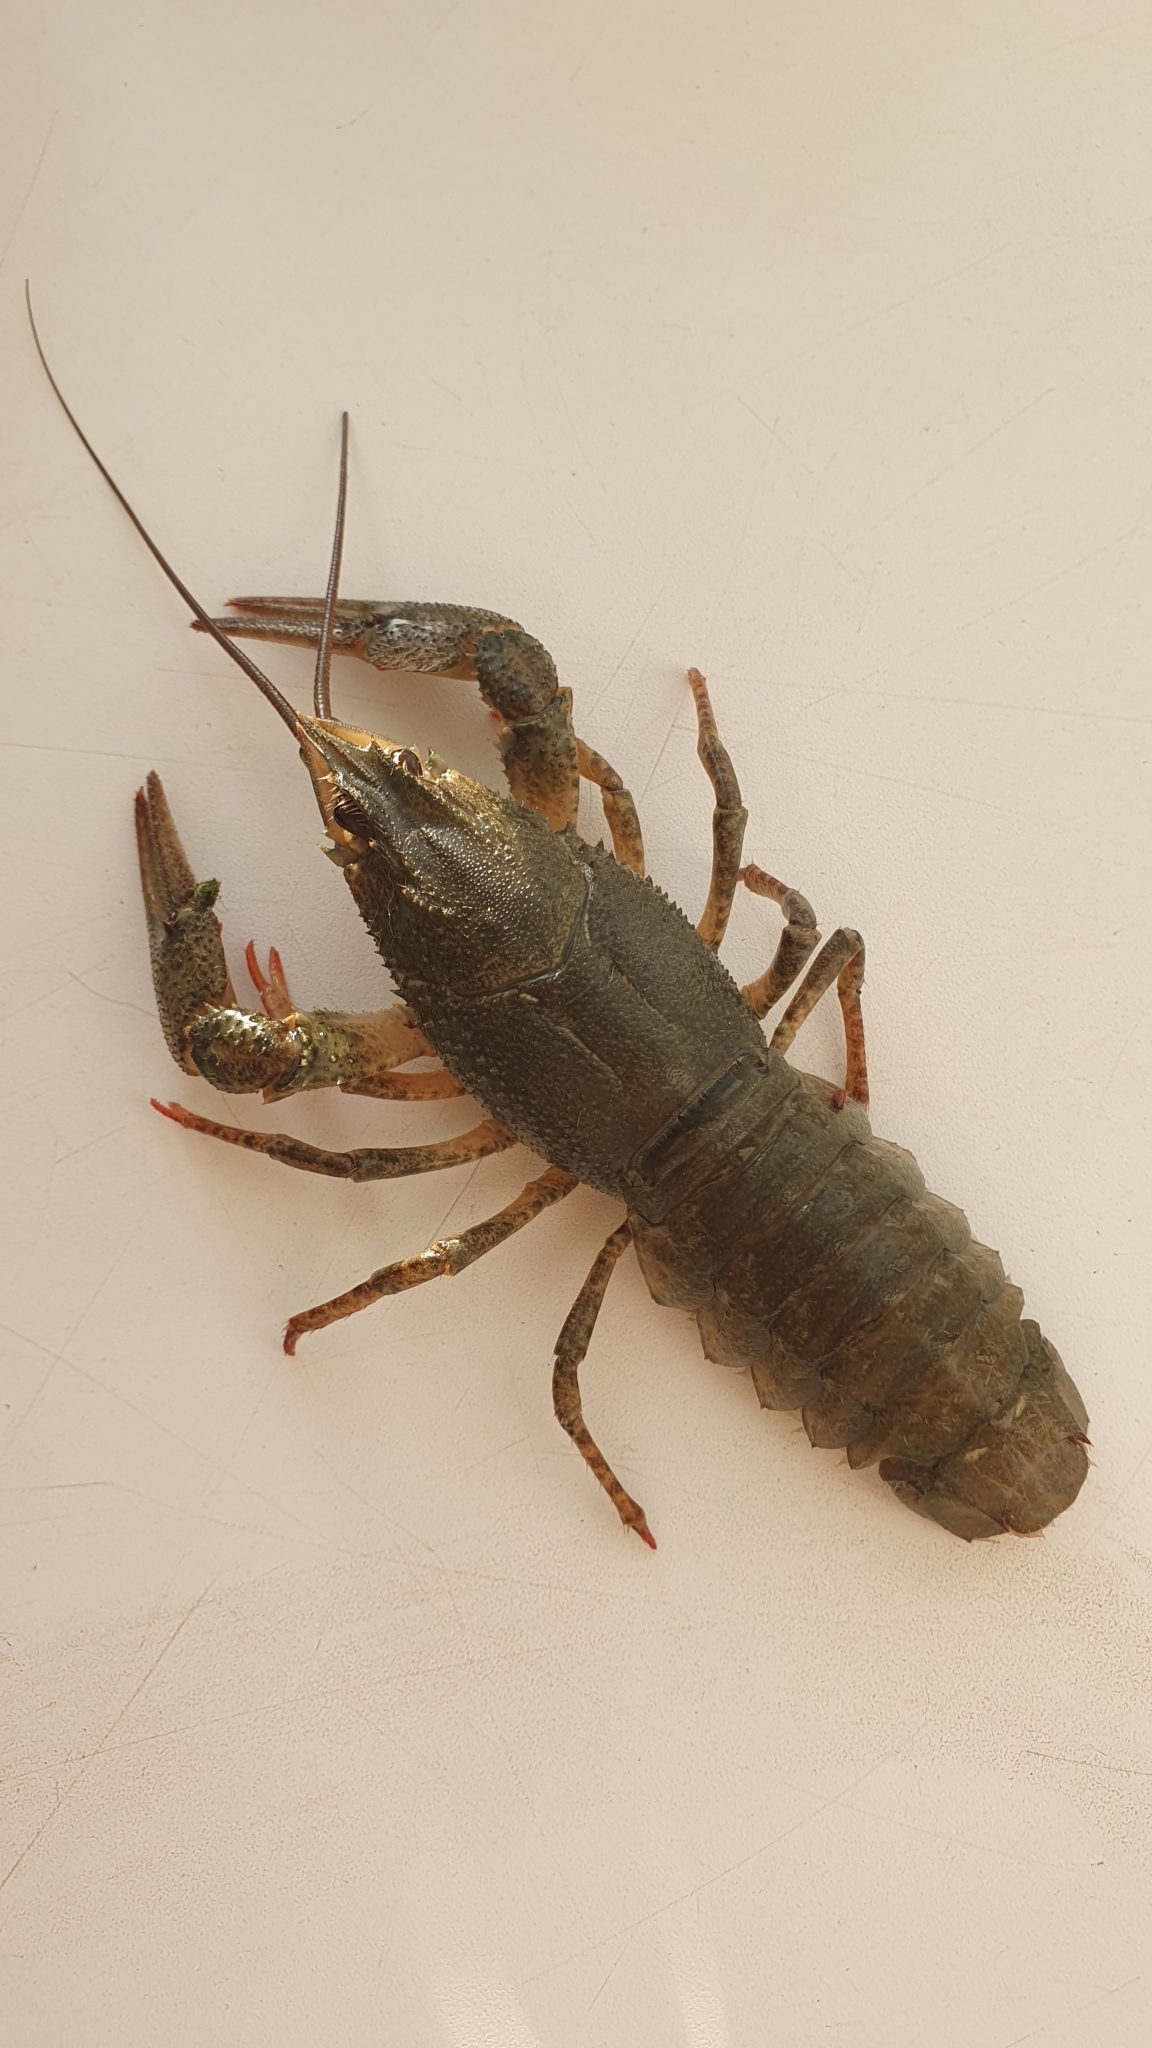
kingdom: Animalia
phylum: Arthropoda
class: Malacostraca
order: Decapoda
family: Astacidae
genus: Pontastacus
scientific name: Pontastacus leptodactylus
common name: Danube crayfish
